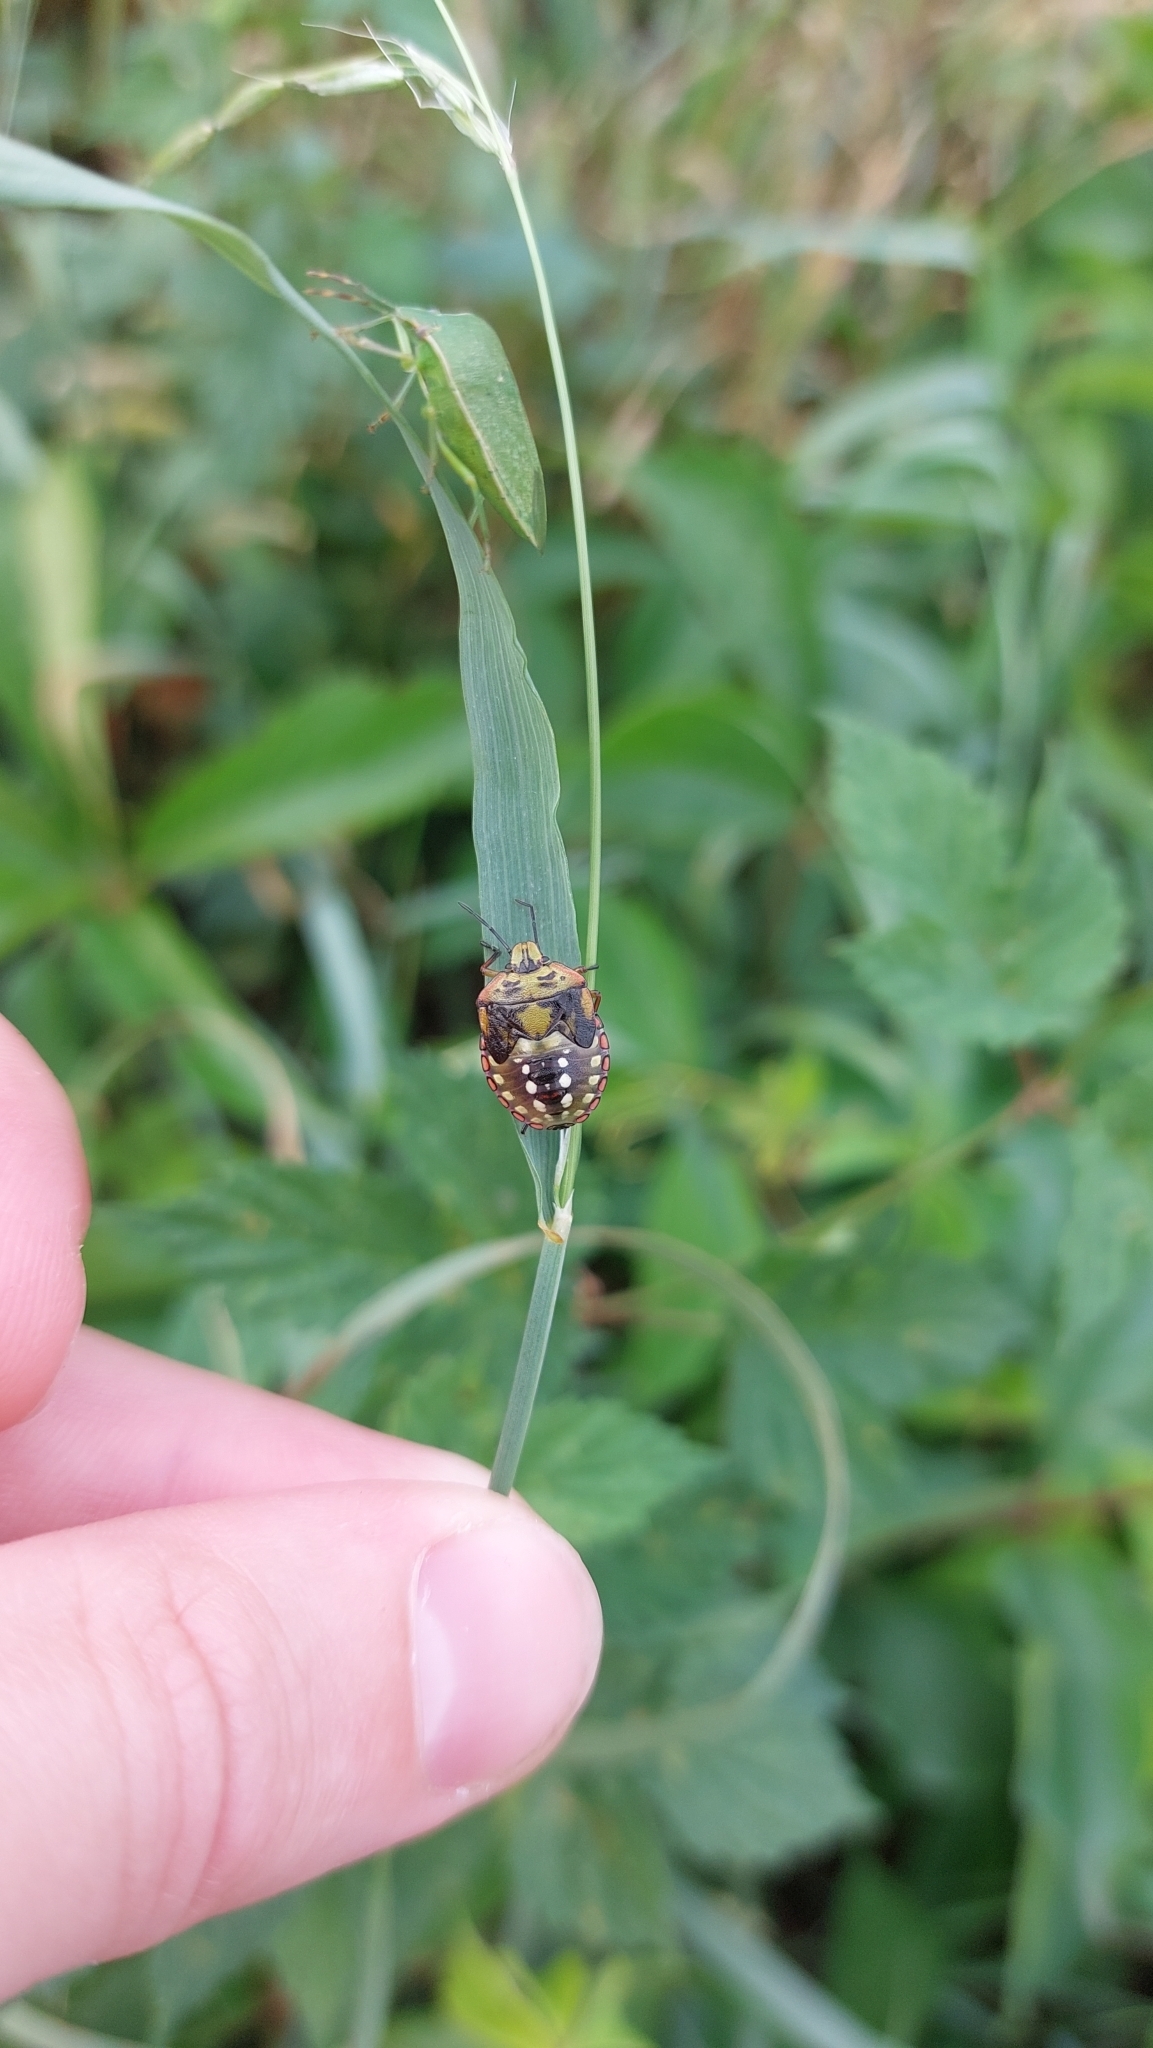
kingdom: Animalia
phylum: Arthropoda
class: Insecta
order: Hemiptera
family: Pentatomidae
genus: Nezara
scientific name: Nezara viridula
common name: Southern green stink bug
